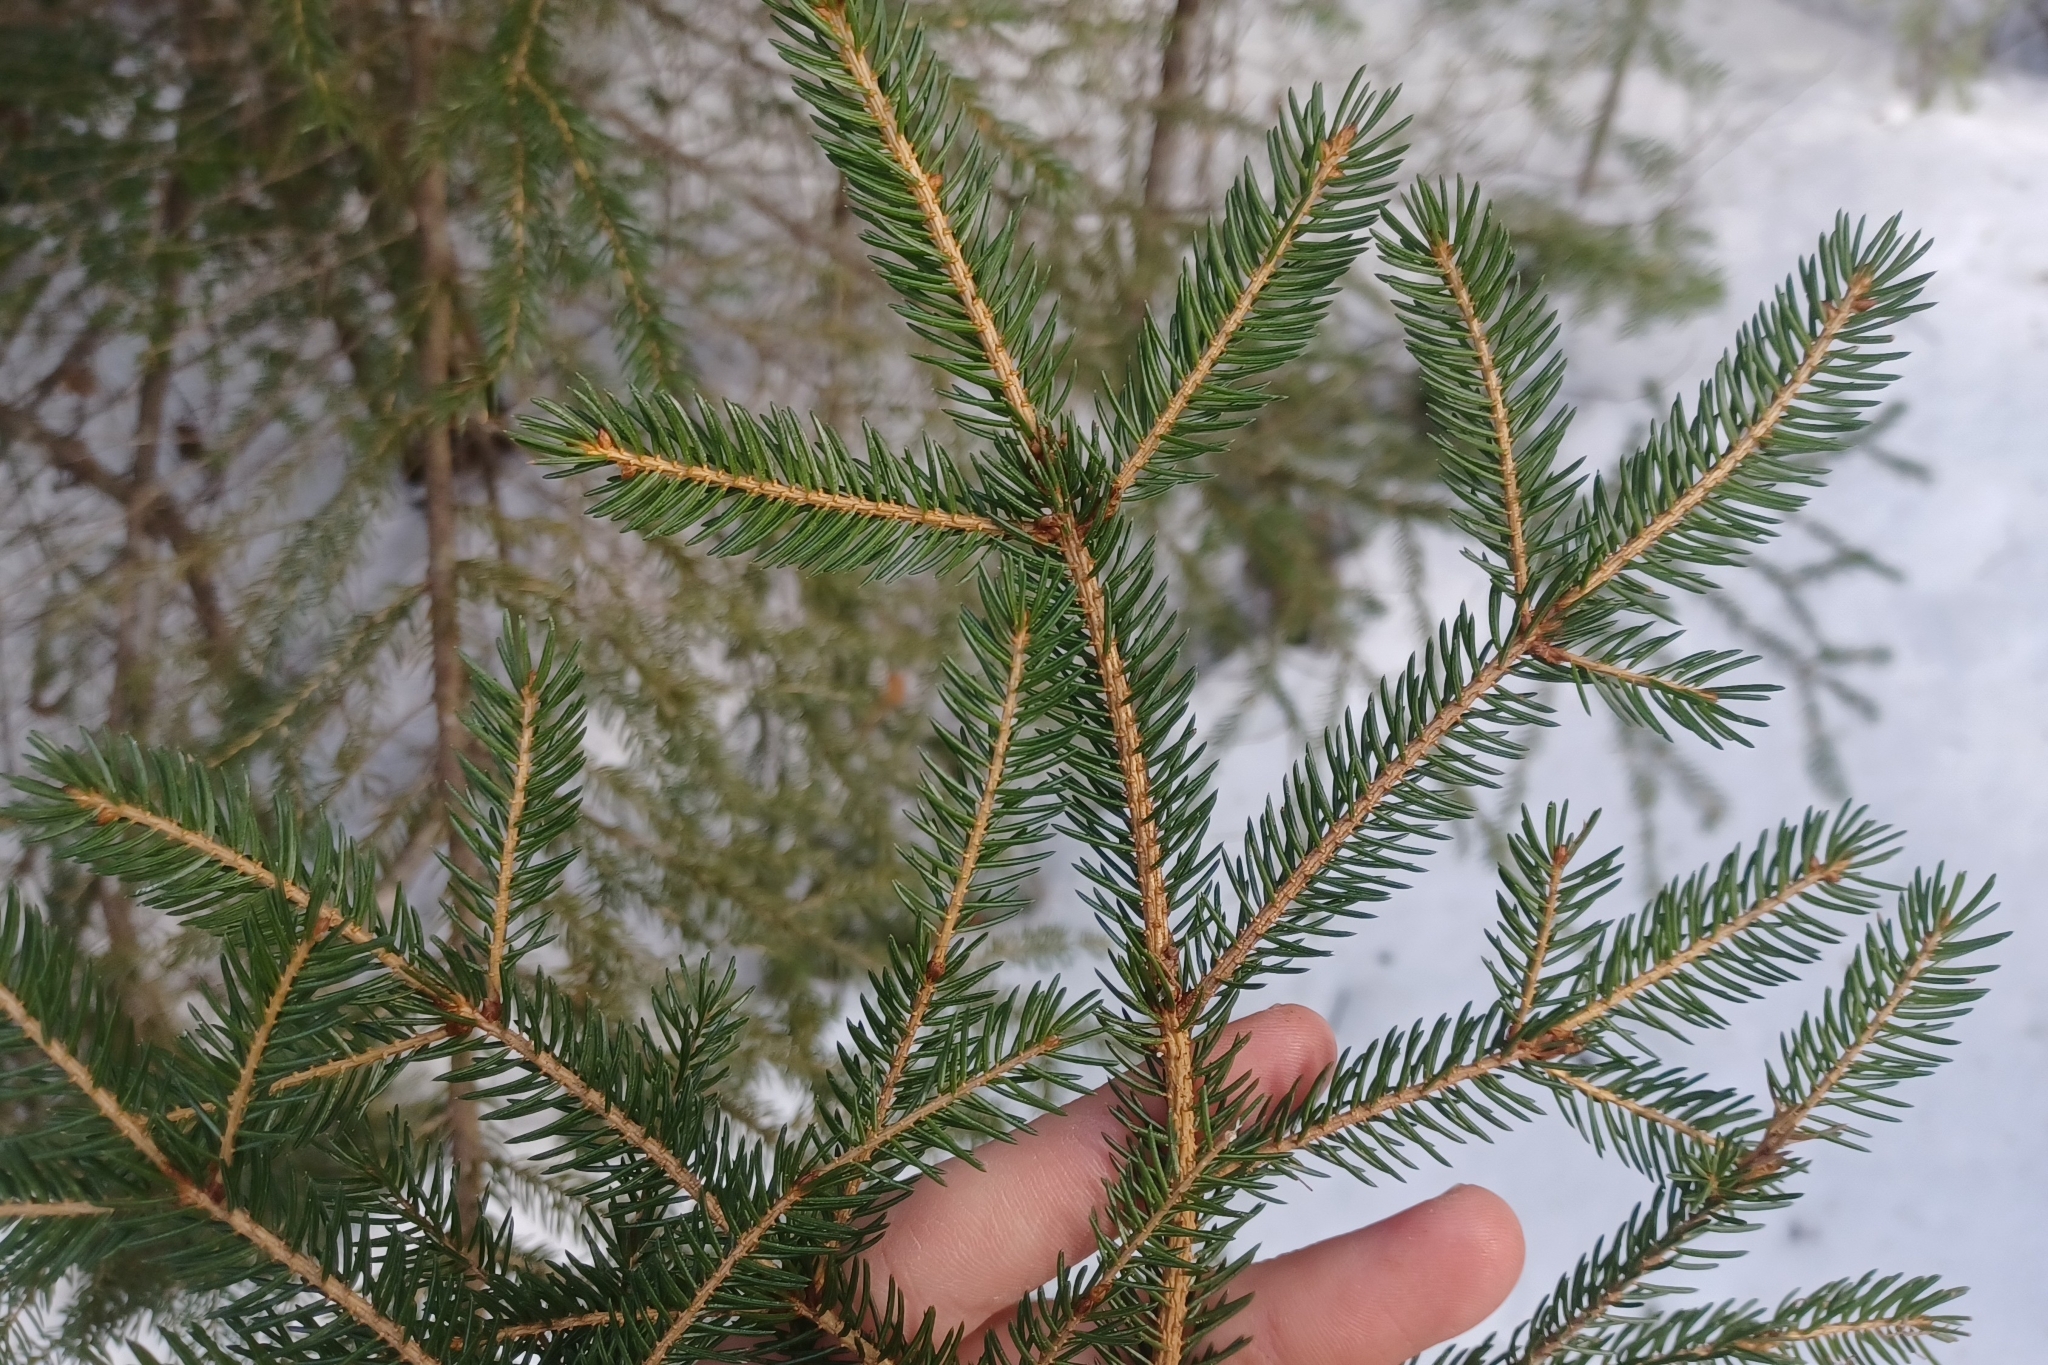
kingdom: Plantae
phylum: Tracheophyta
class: Pinopsida
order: Pinales
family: Pinaceae
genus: Picea
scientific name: Picea rubens
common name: Red spruce
